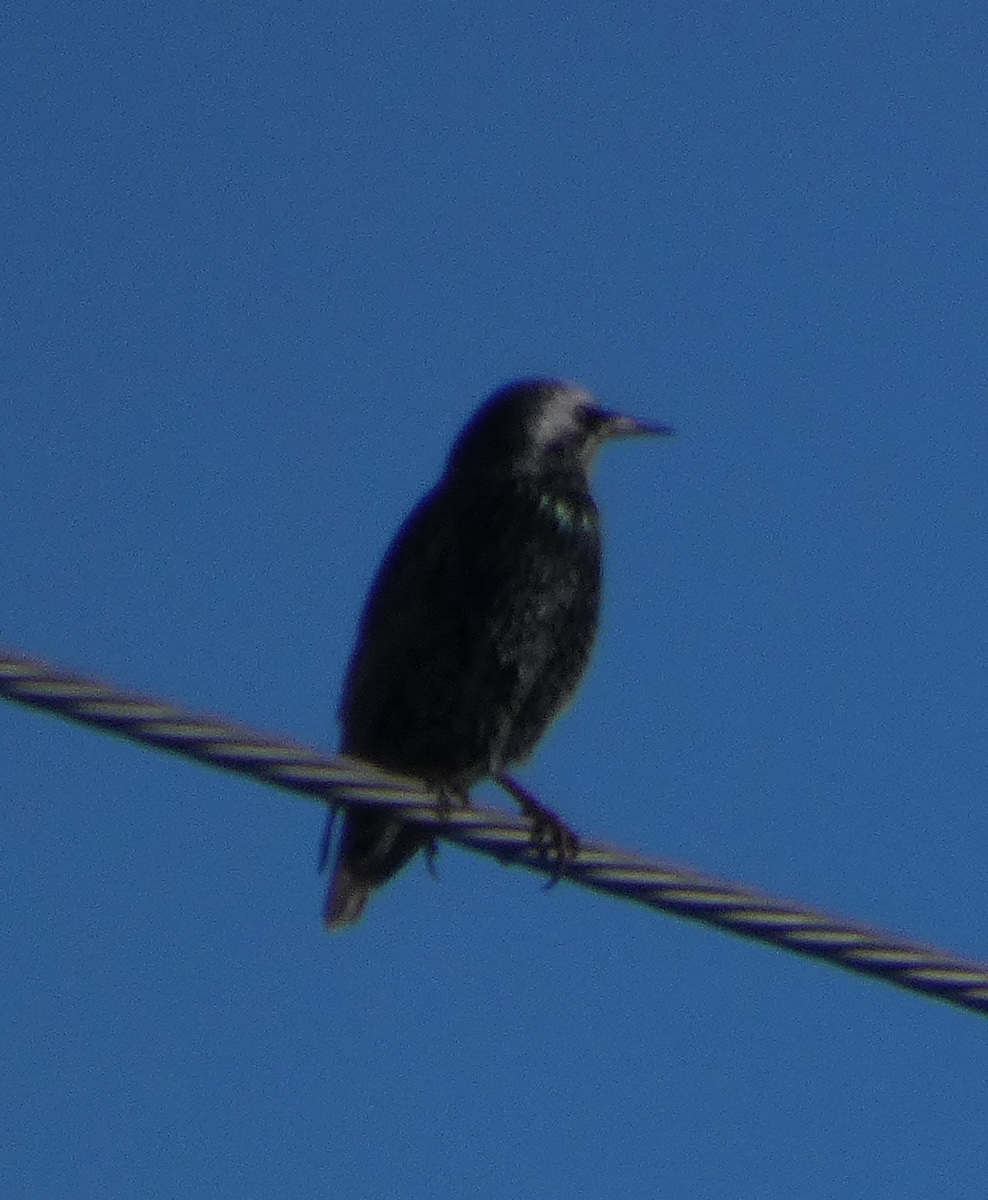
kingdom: Animalia
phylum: Chordata
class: Aves
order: Passeriformes
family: Sturnidae
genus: Sturnus
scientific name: Sturnus vulgaris
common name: Common starling
